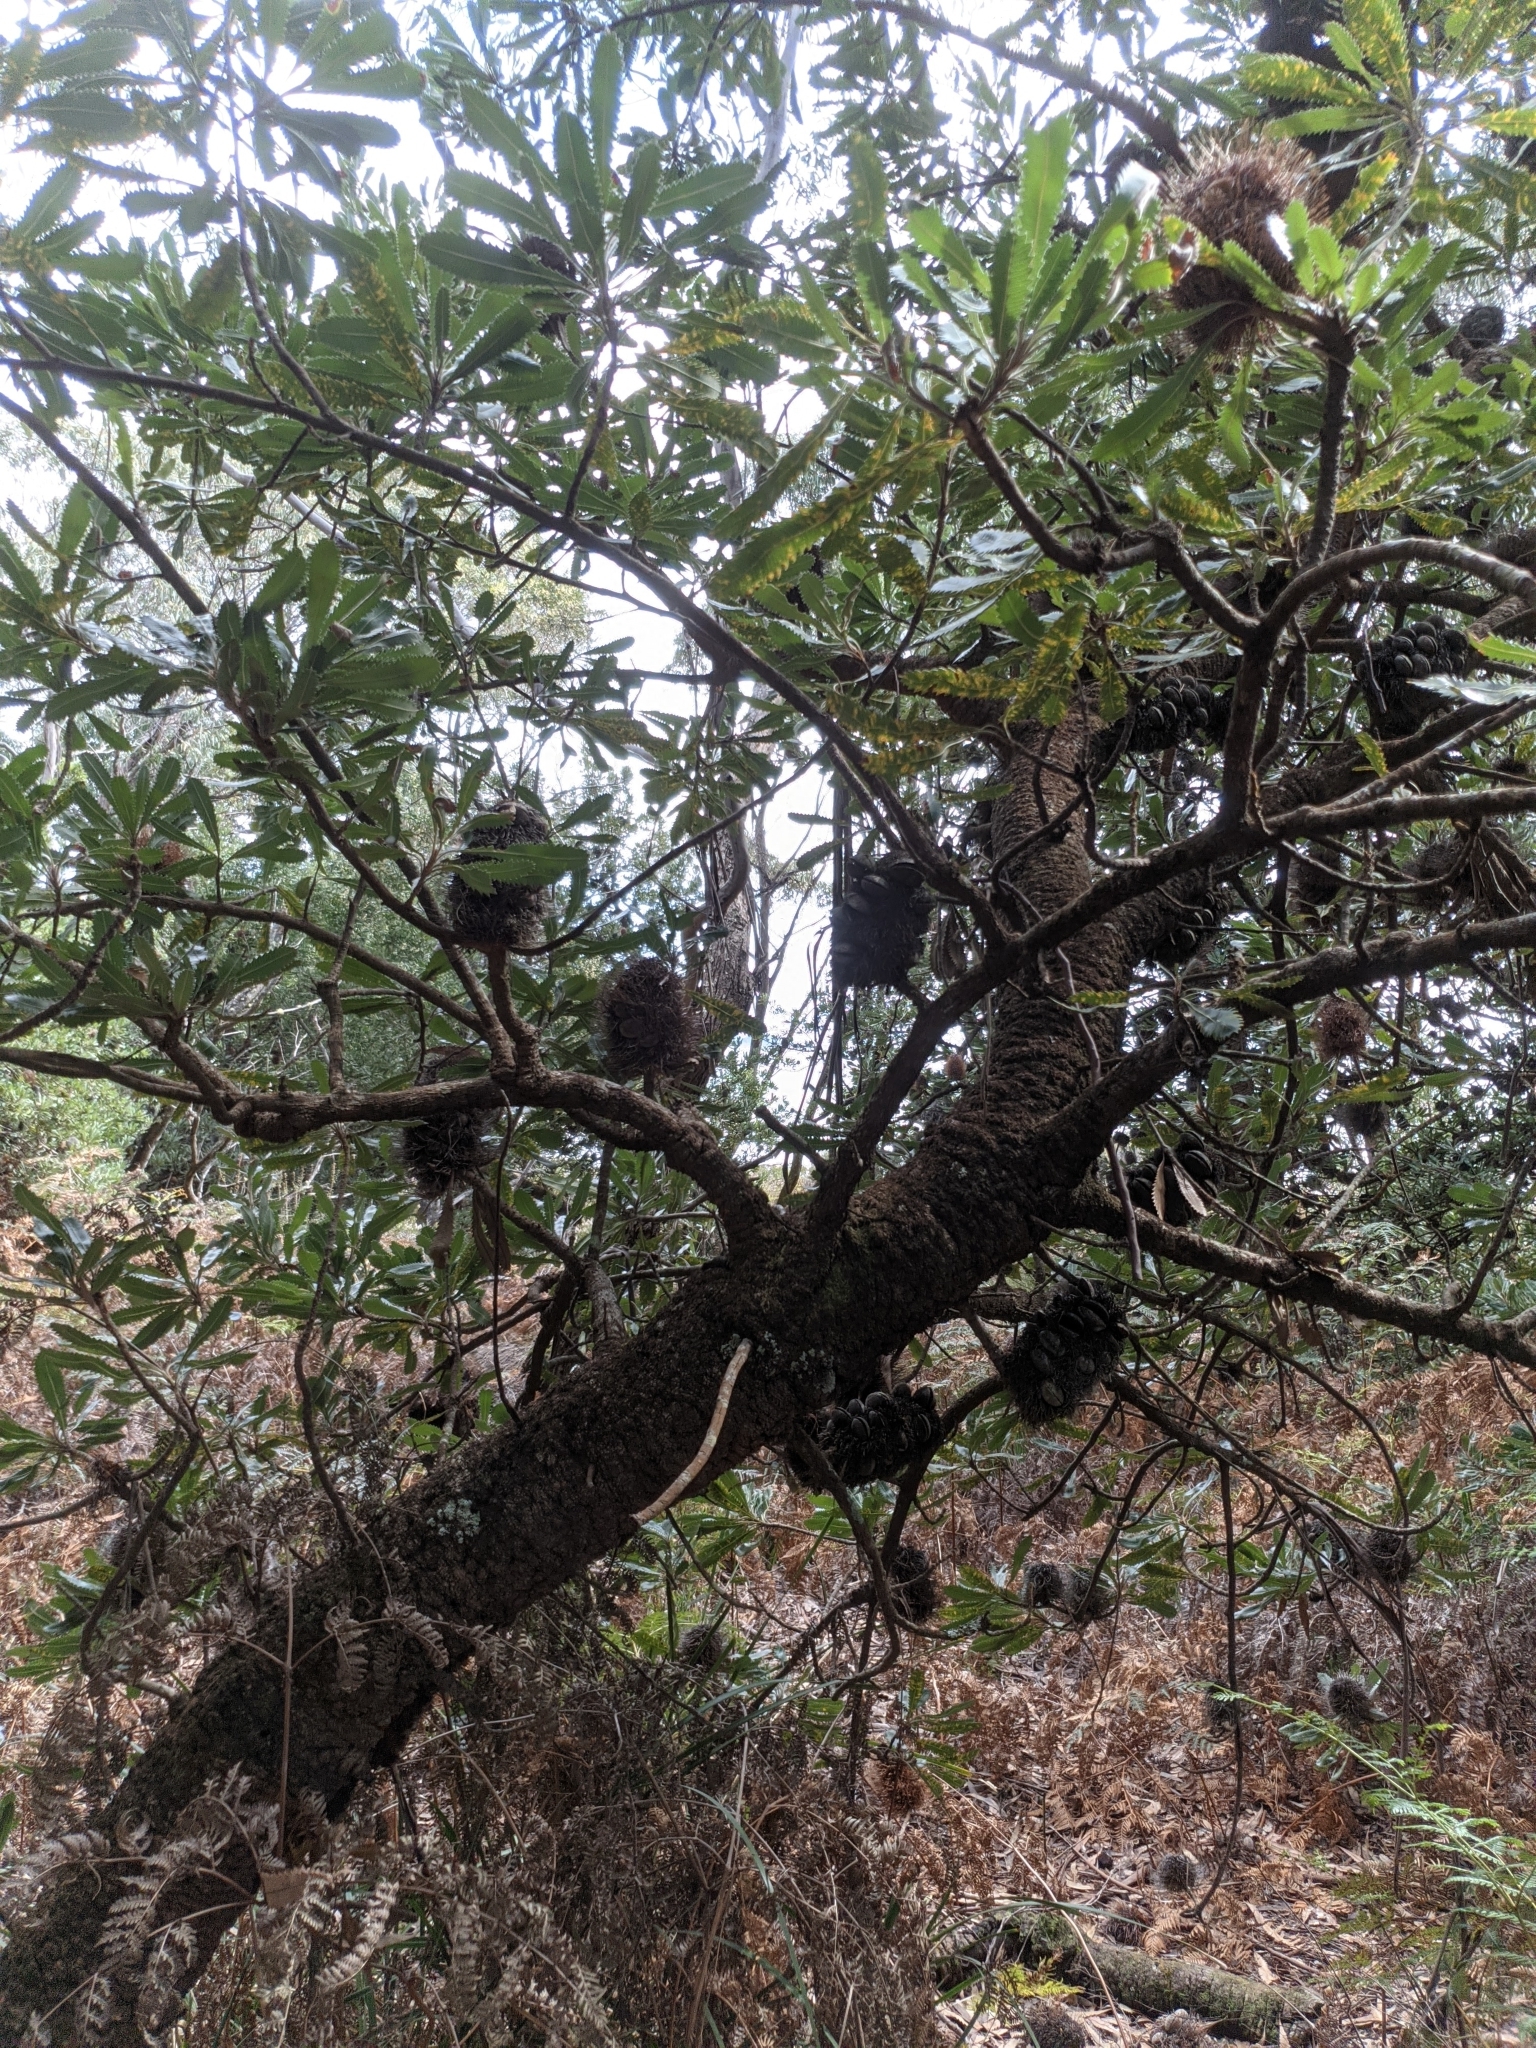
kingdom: Plantae
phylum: Tracheophyta
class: Magnoliopsida
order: Proteales
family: Proteaceae
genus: Banksia
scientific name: Banksia serrata
